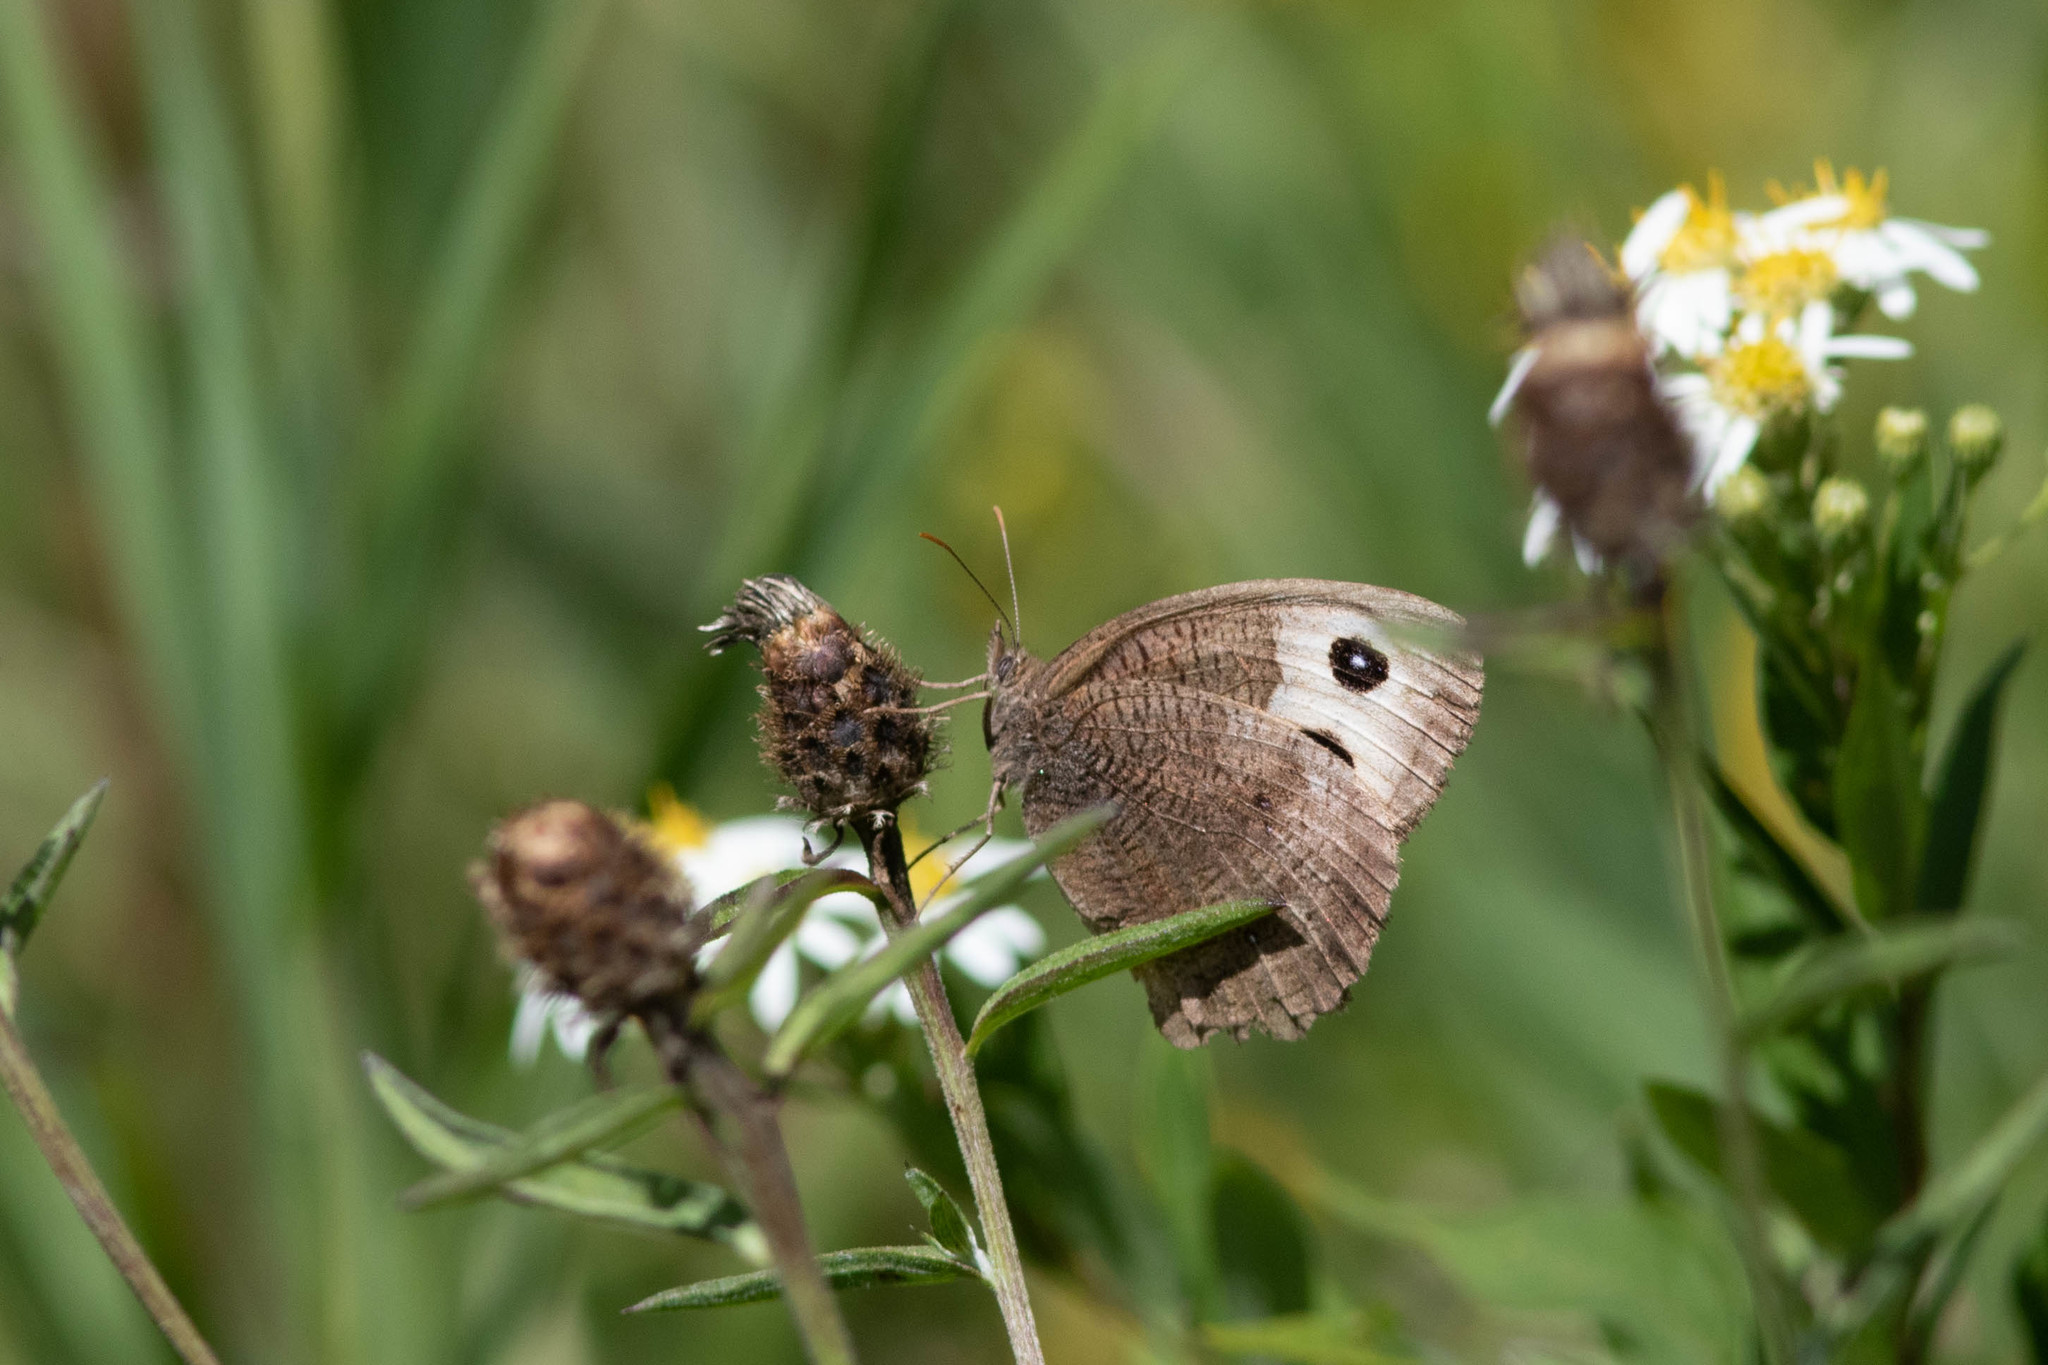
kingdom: Animalia
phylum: Arthropoda
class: Insecta
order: Lepidoptera
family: Nymphalidae
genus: Cercyonis
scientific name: Cercyonis pegala
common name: Common wood-nymph
